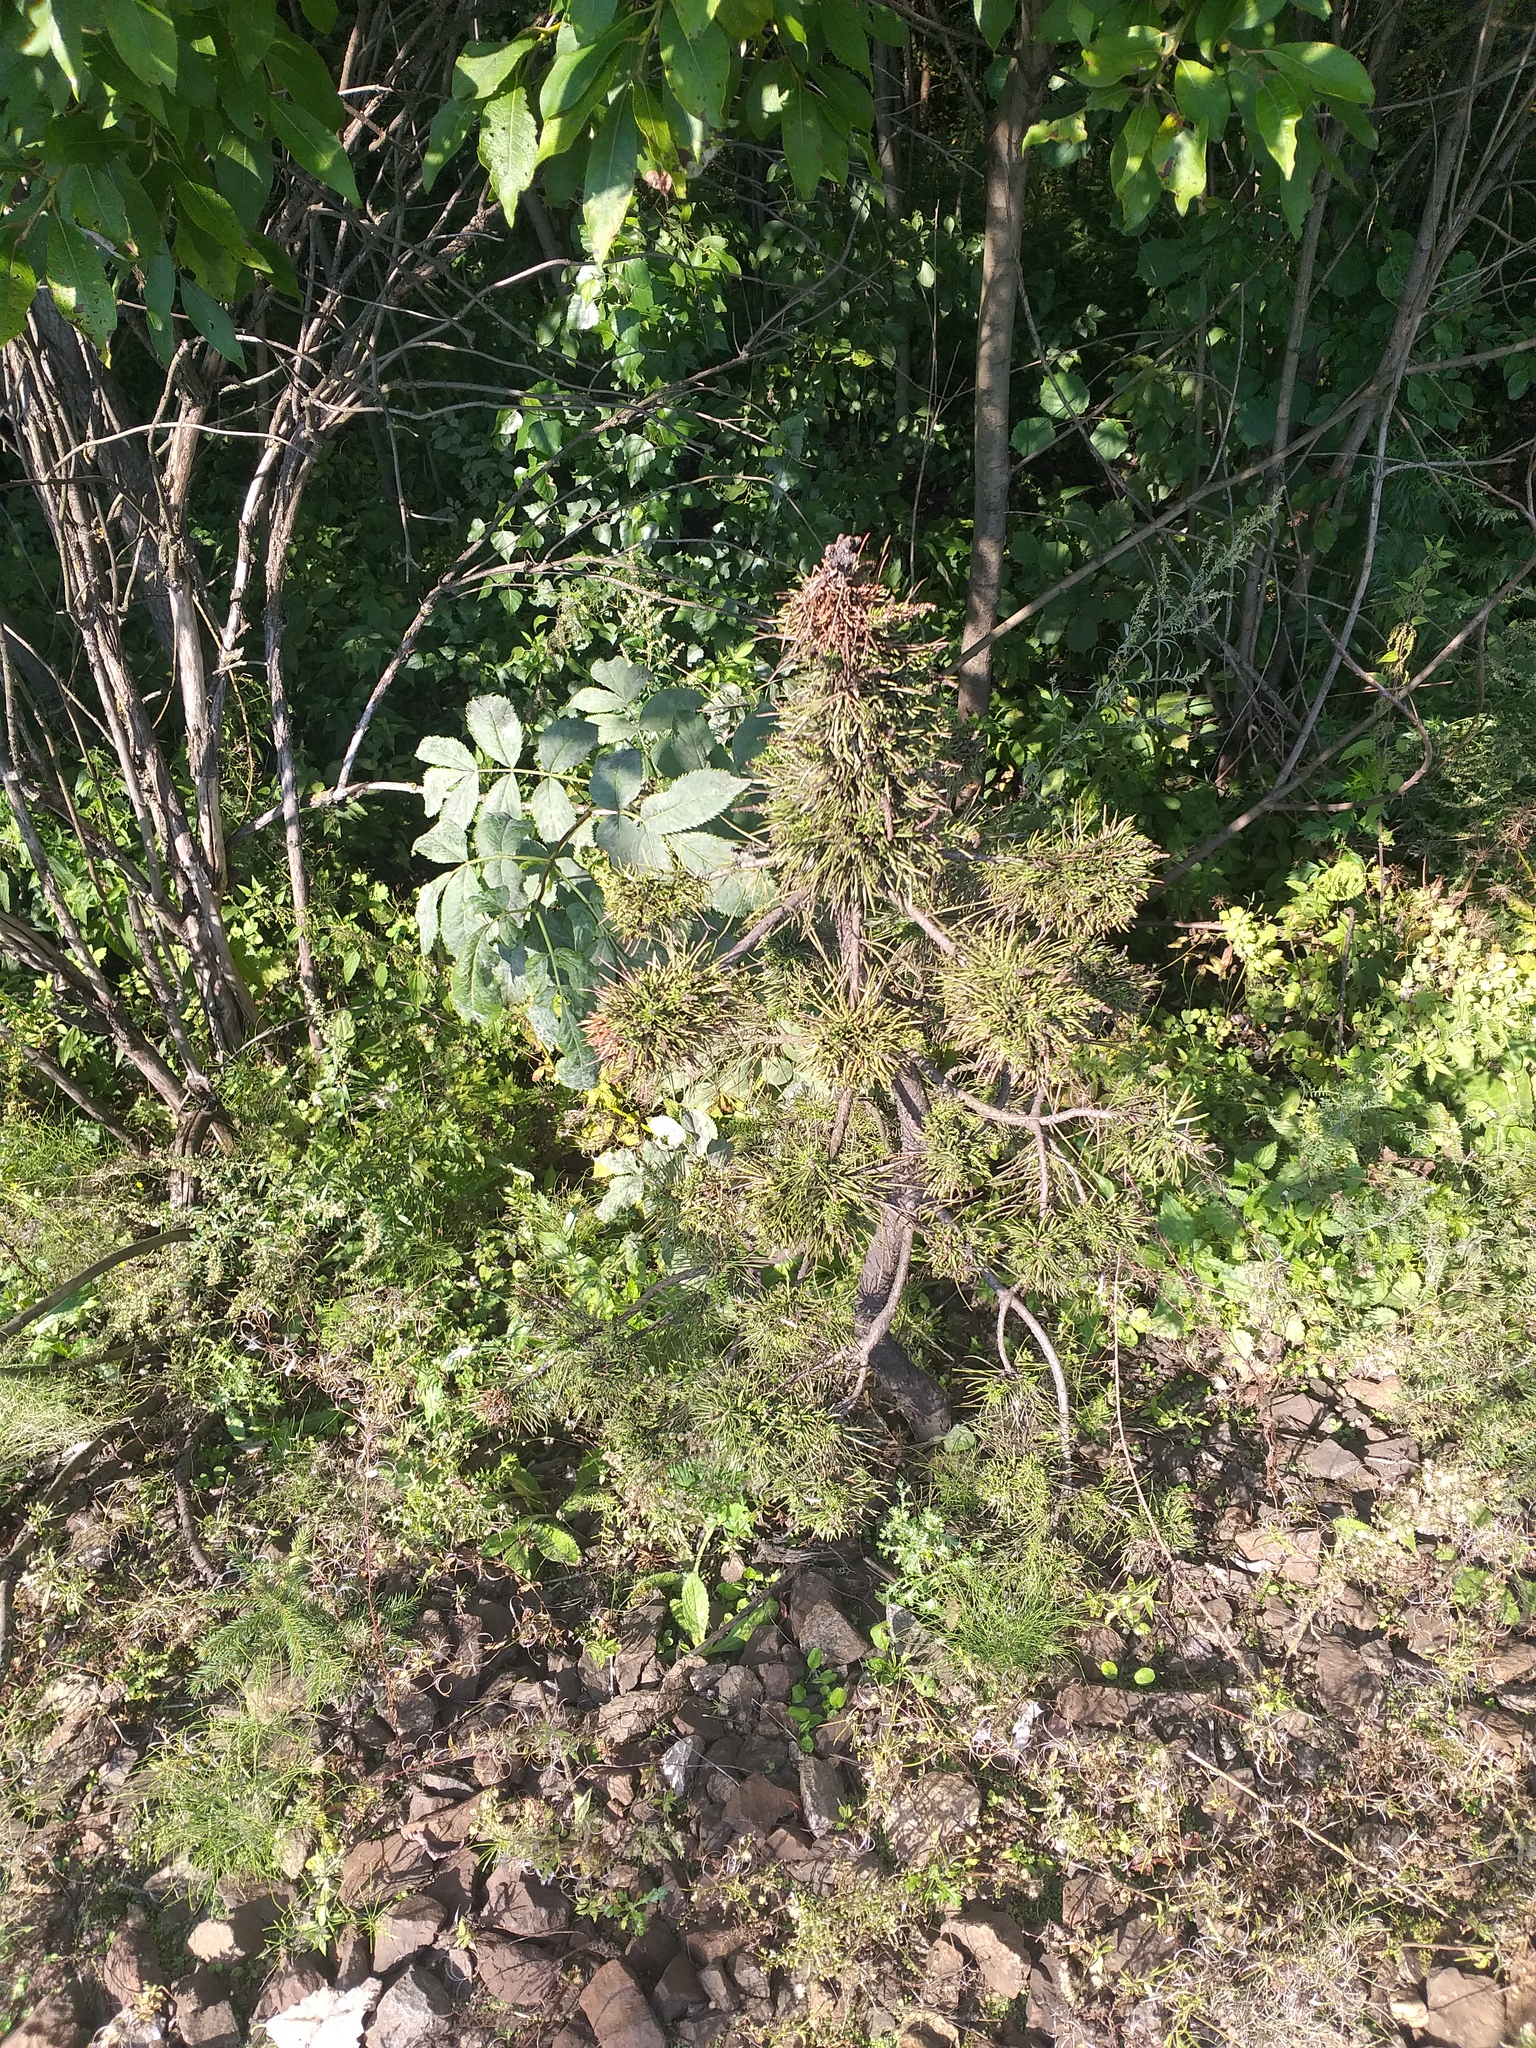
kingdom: Plantae
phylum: Tracheophyta
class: Pinopsida
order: Pinales
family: Pinaceae
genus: Pinus
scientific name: Pinus sylvestris
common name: Scots pine
